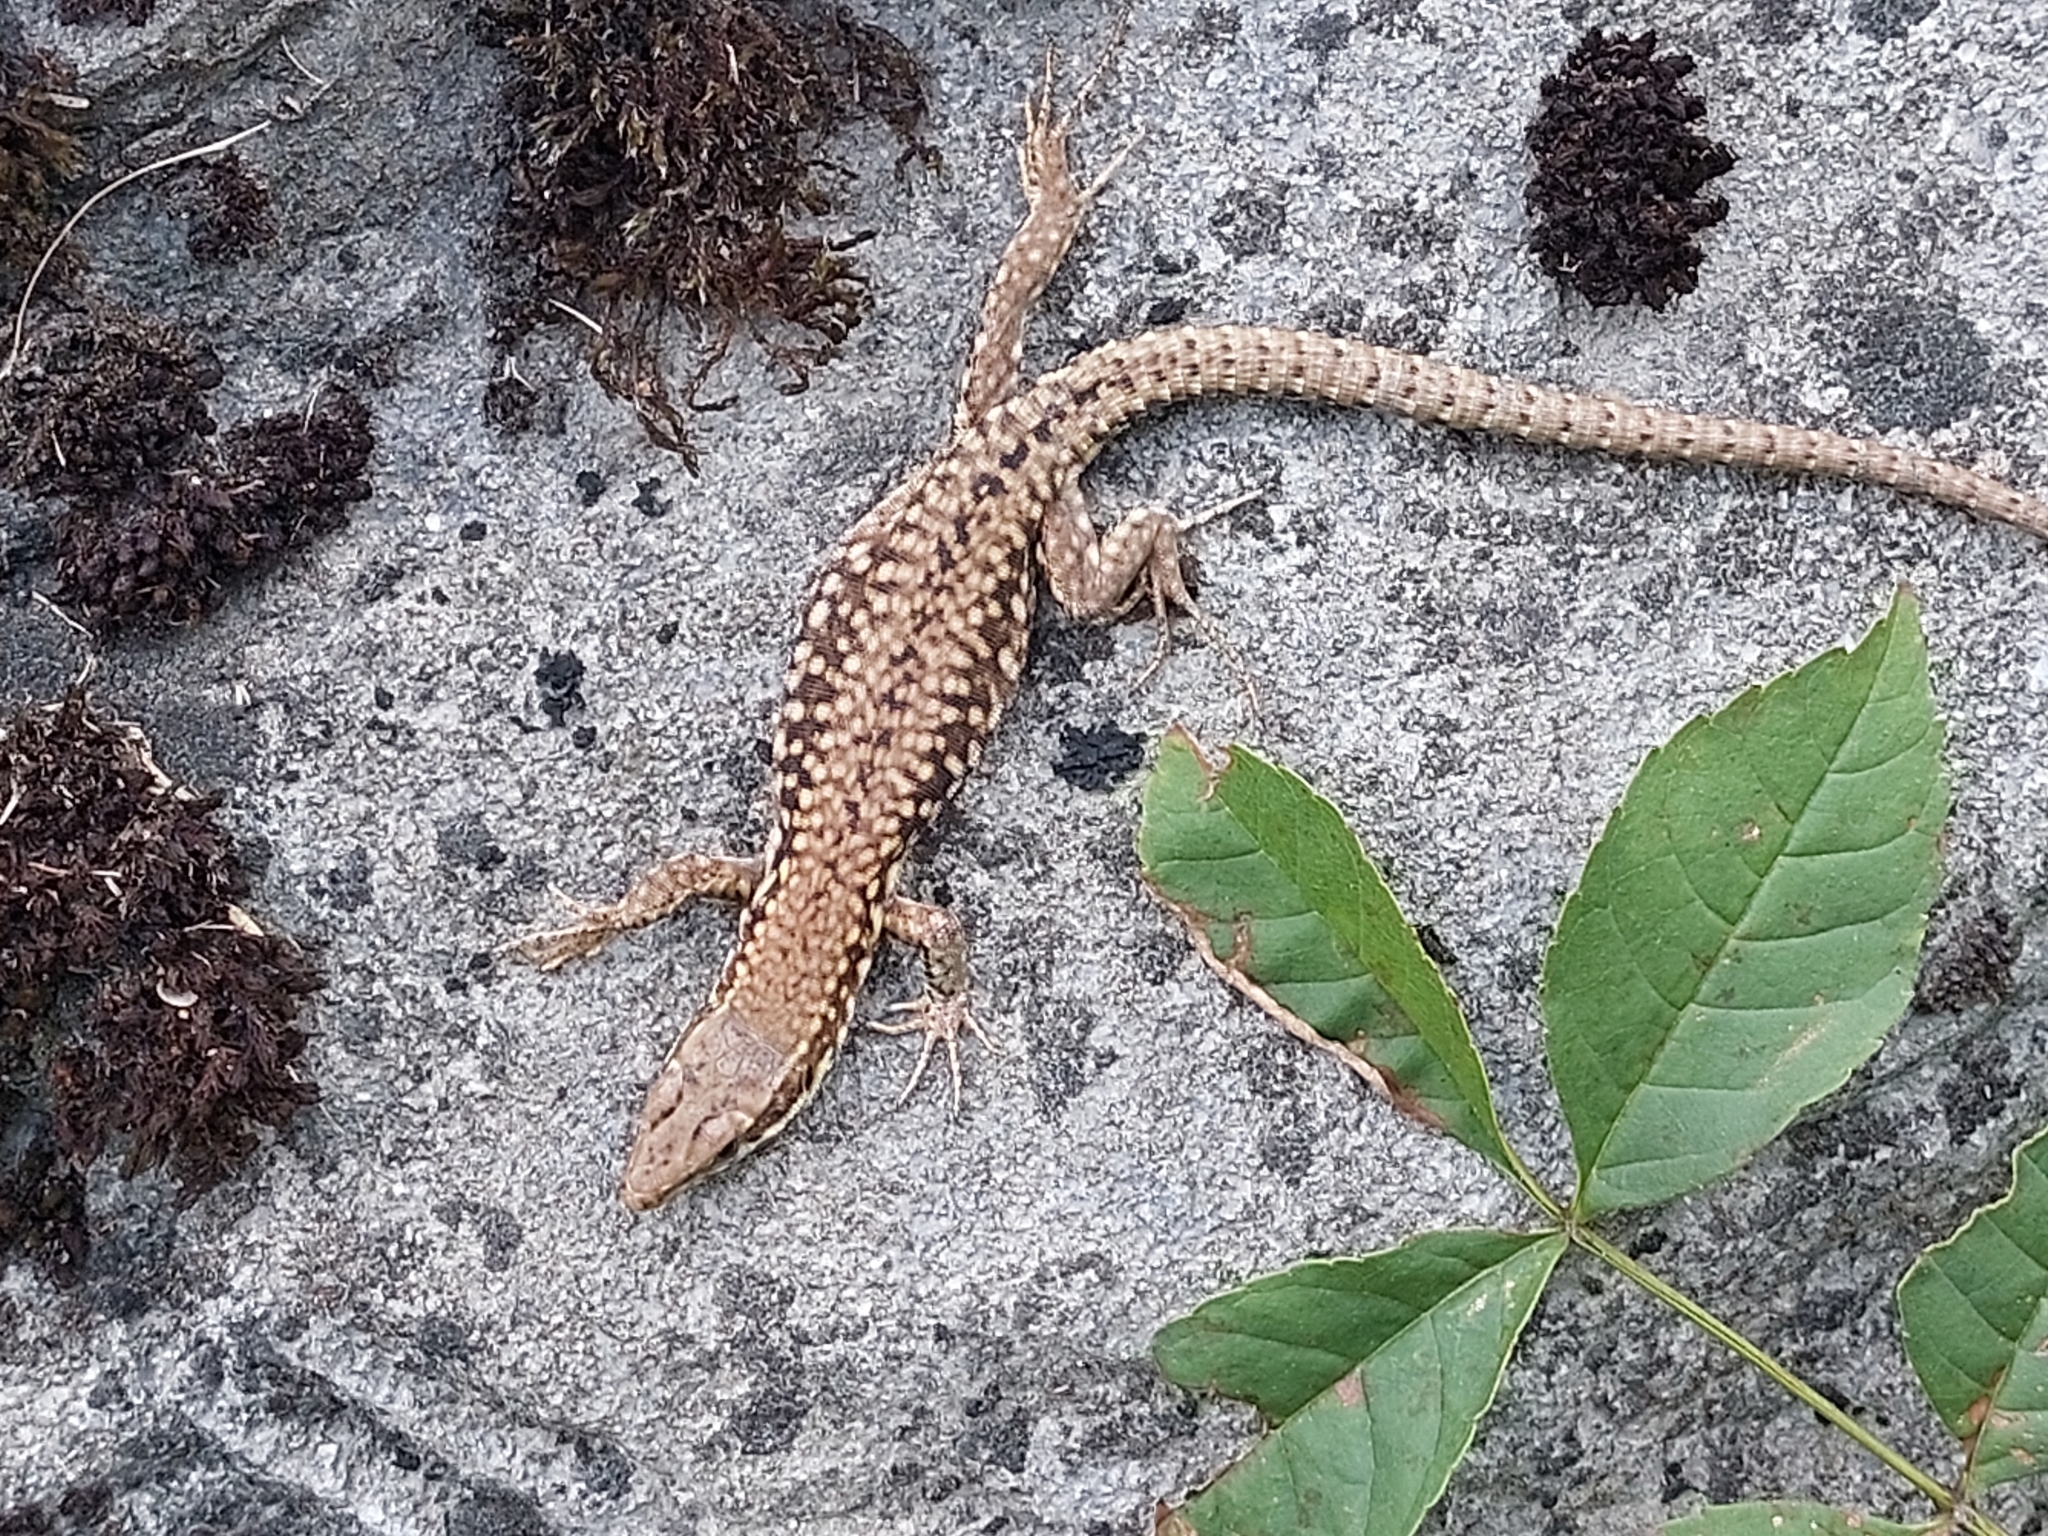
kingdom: Animalia
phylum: Chordata
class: Squamata
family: Lacertidae
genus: Podarcis
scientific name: Podarcis muralis
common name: Common wall lizard
